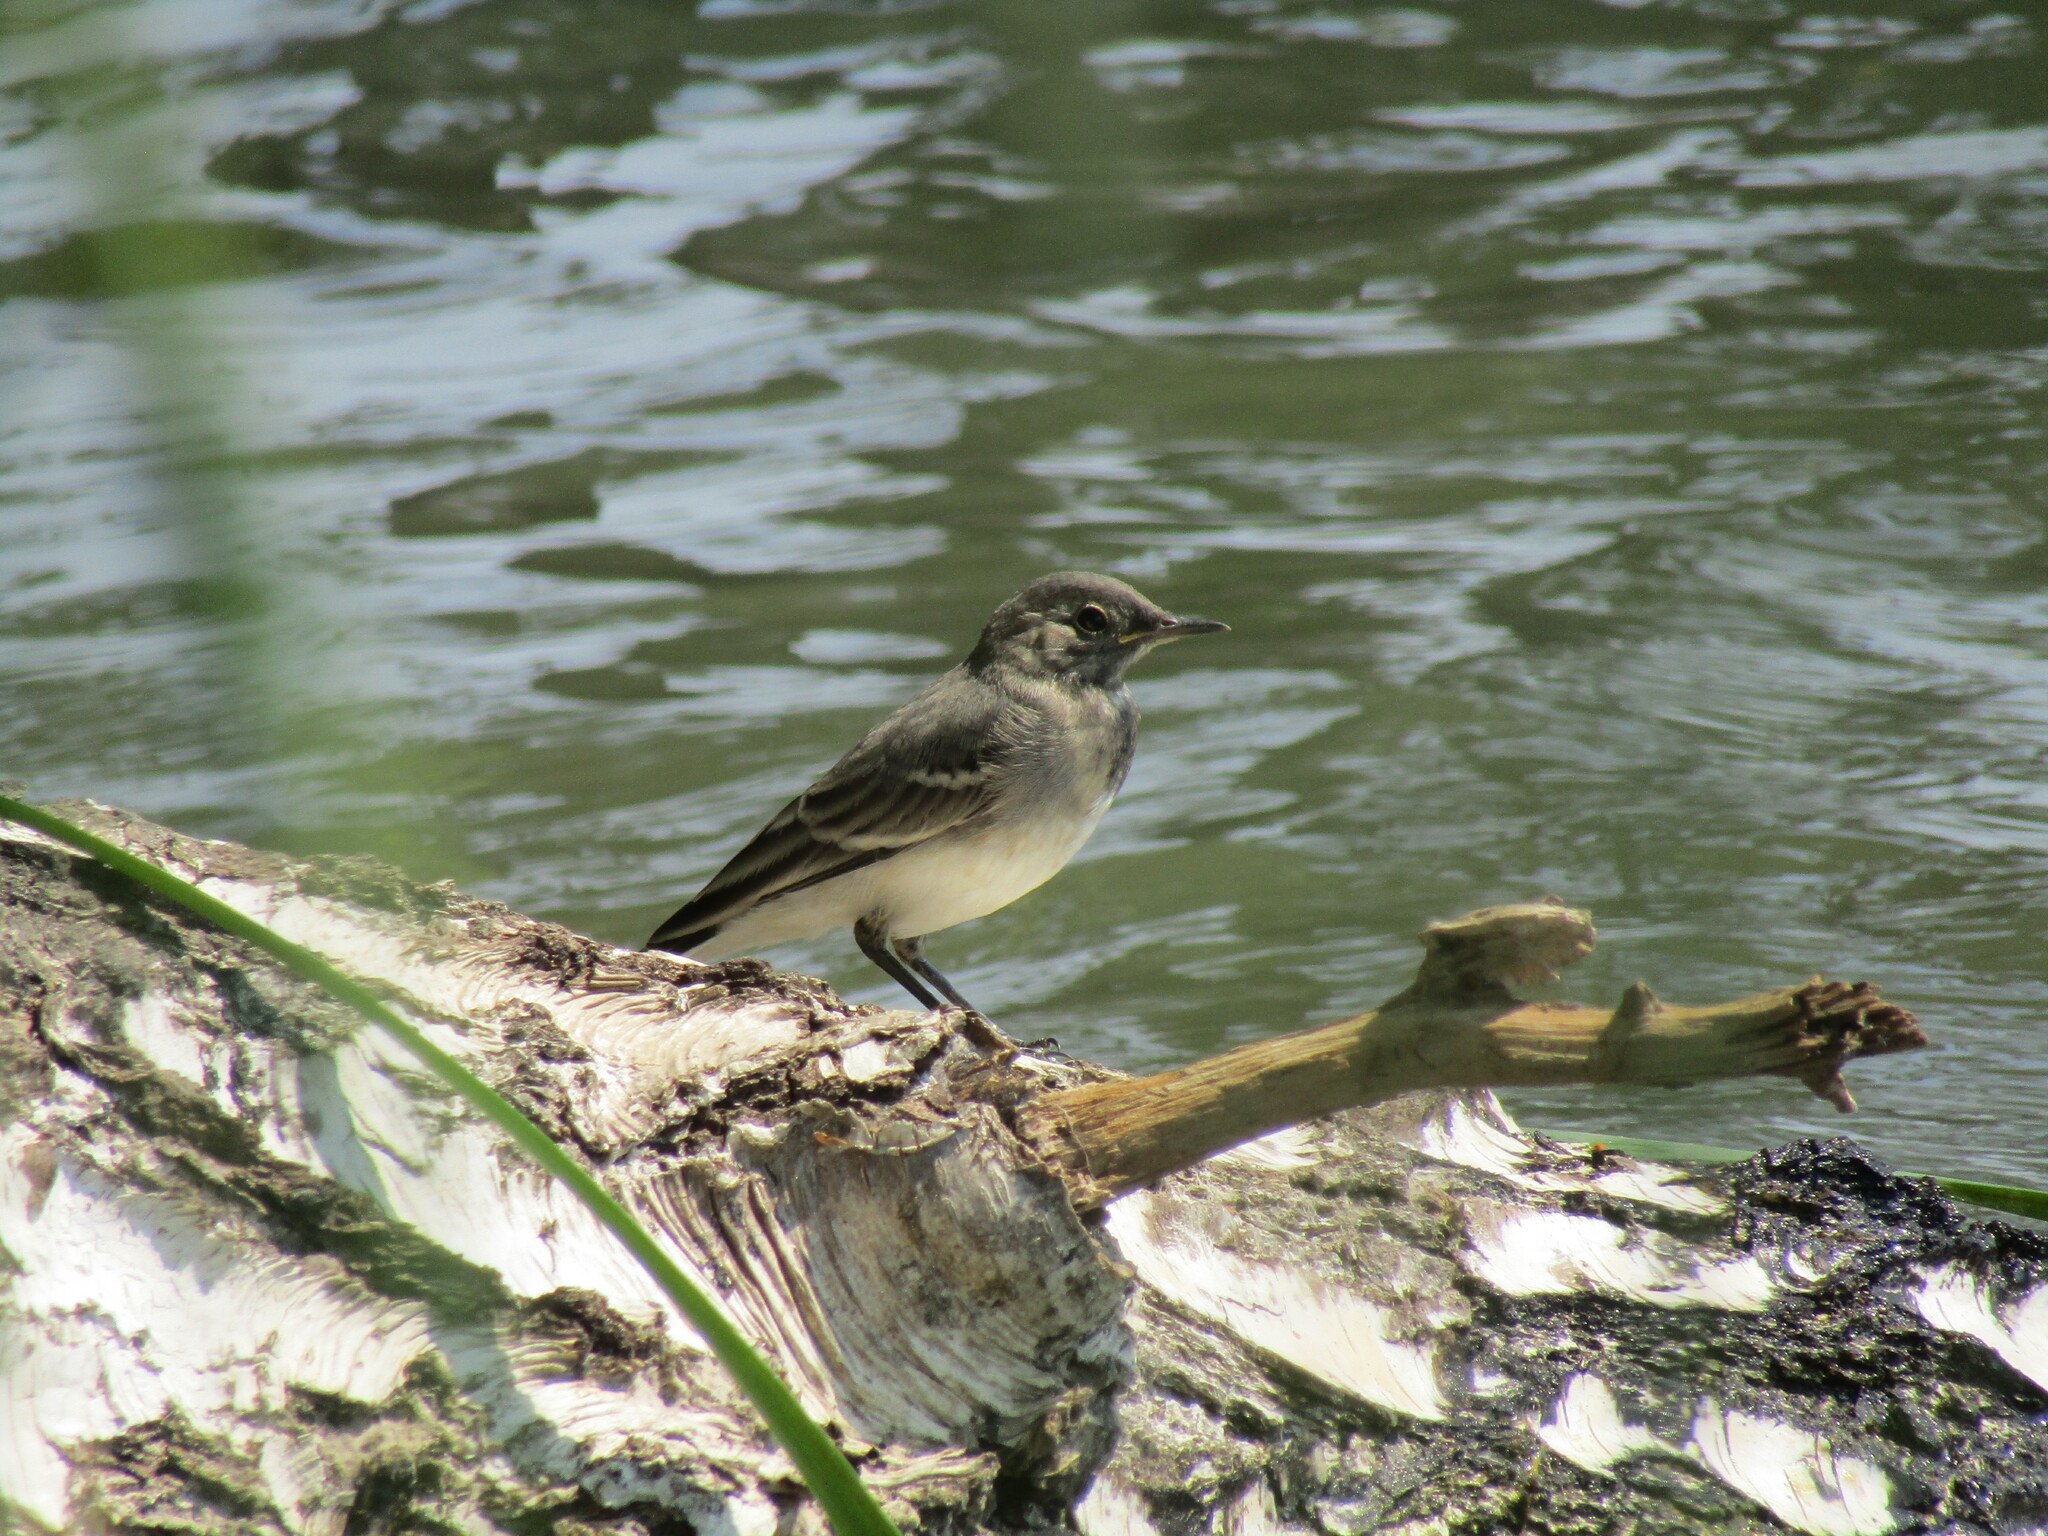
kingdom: Animalia
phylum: Chordata
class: Aves
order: Passeriformes
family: Motacillidae
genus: Motacilla
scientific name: Motacilla alba
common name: White wagtail
